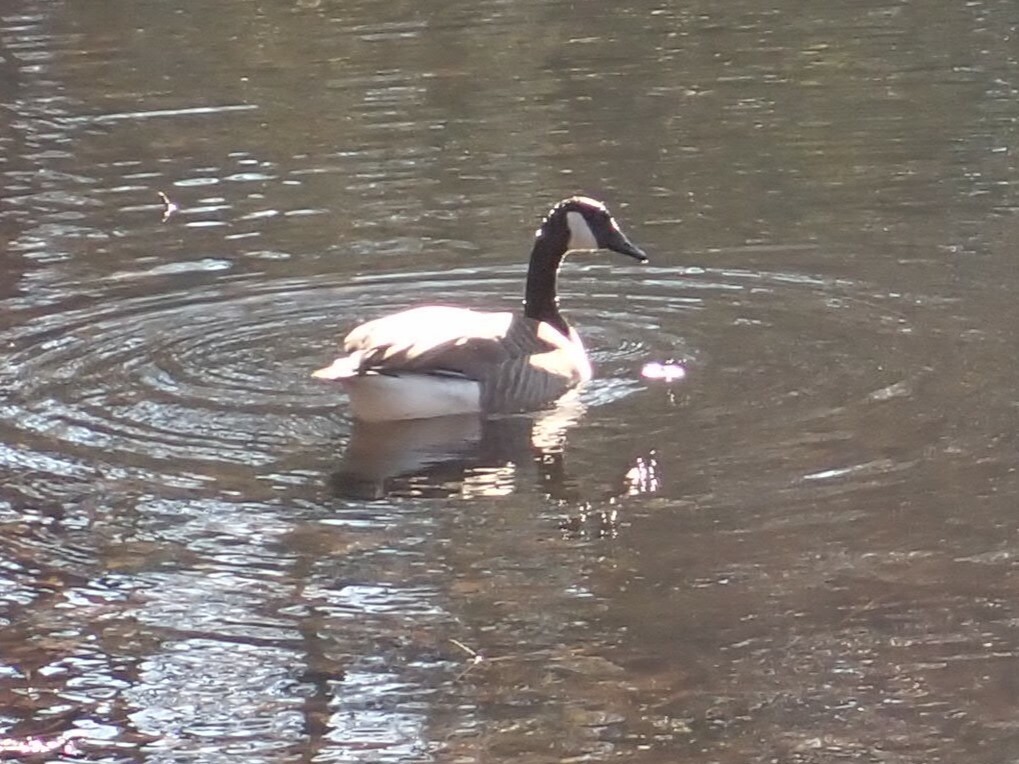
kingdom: Animalia
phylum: Chordata
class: Aves
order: Anseriformes
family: Anatidae
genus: Branta
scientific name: Branta canadensis
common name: Canada goose
